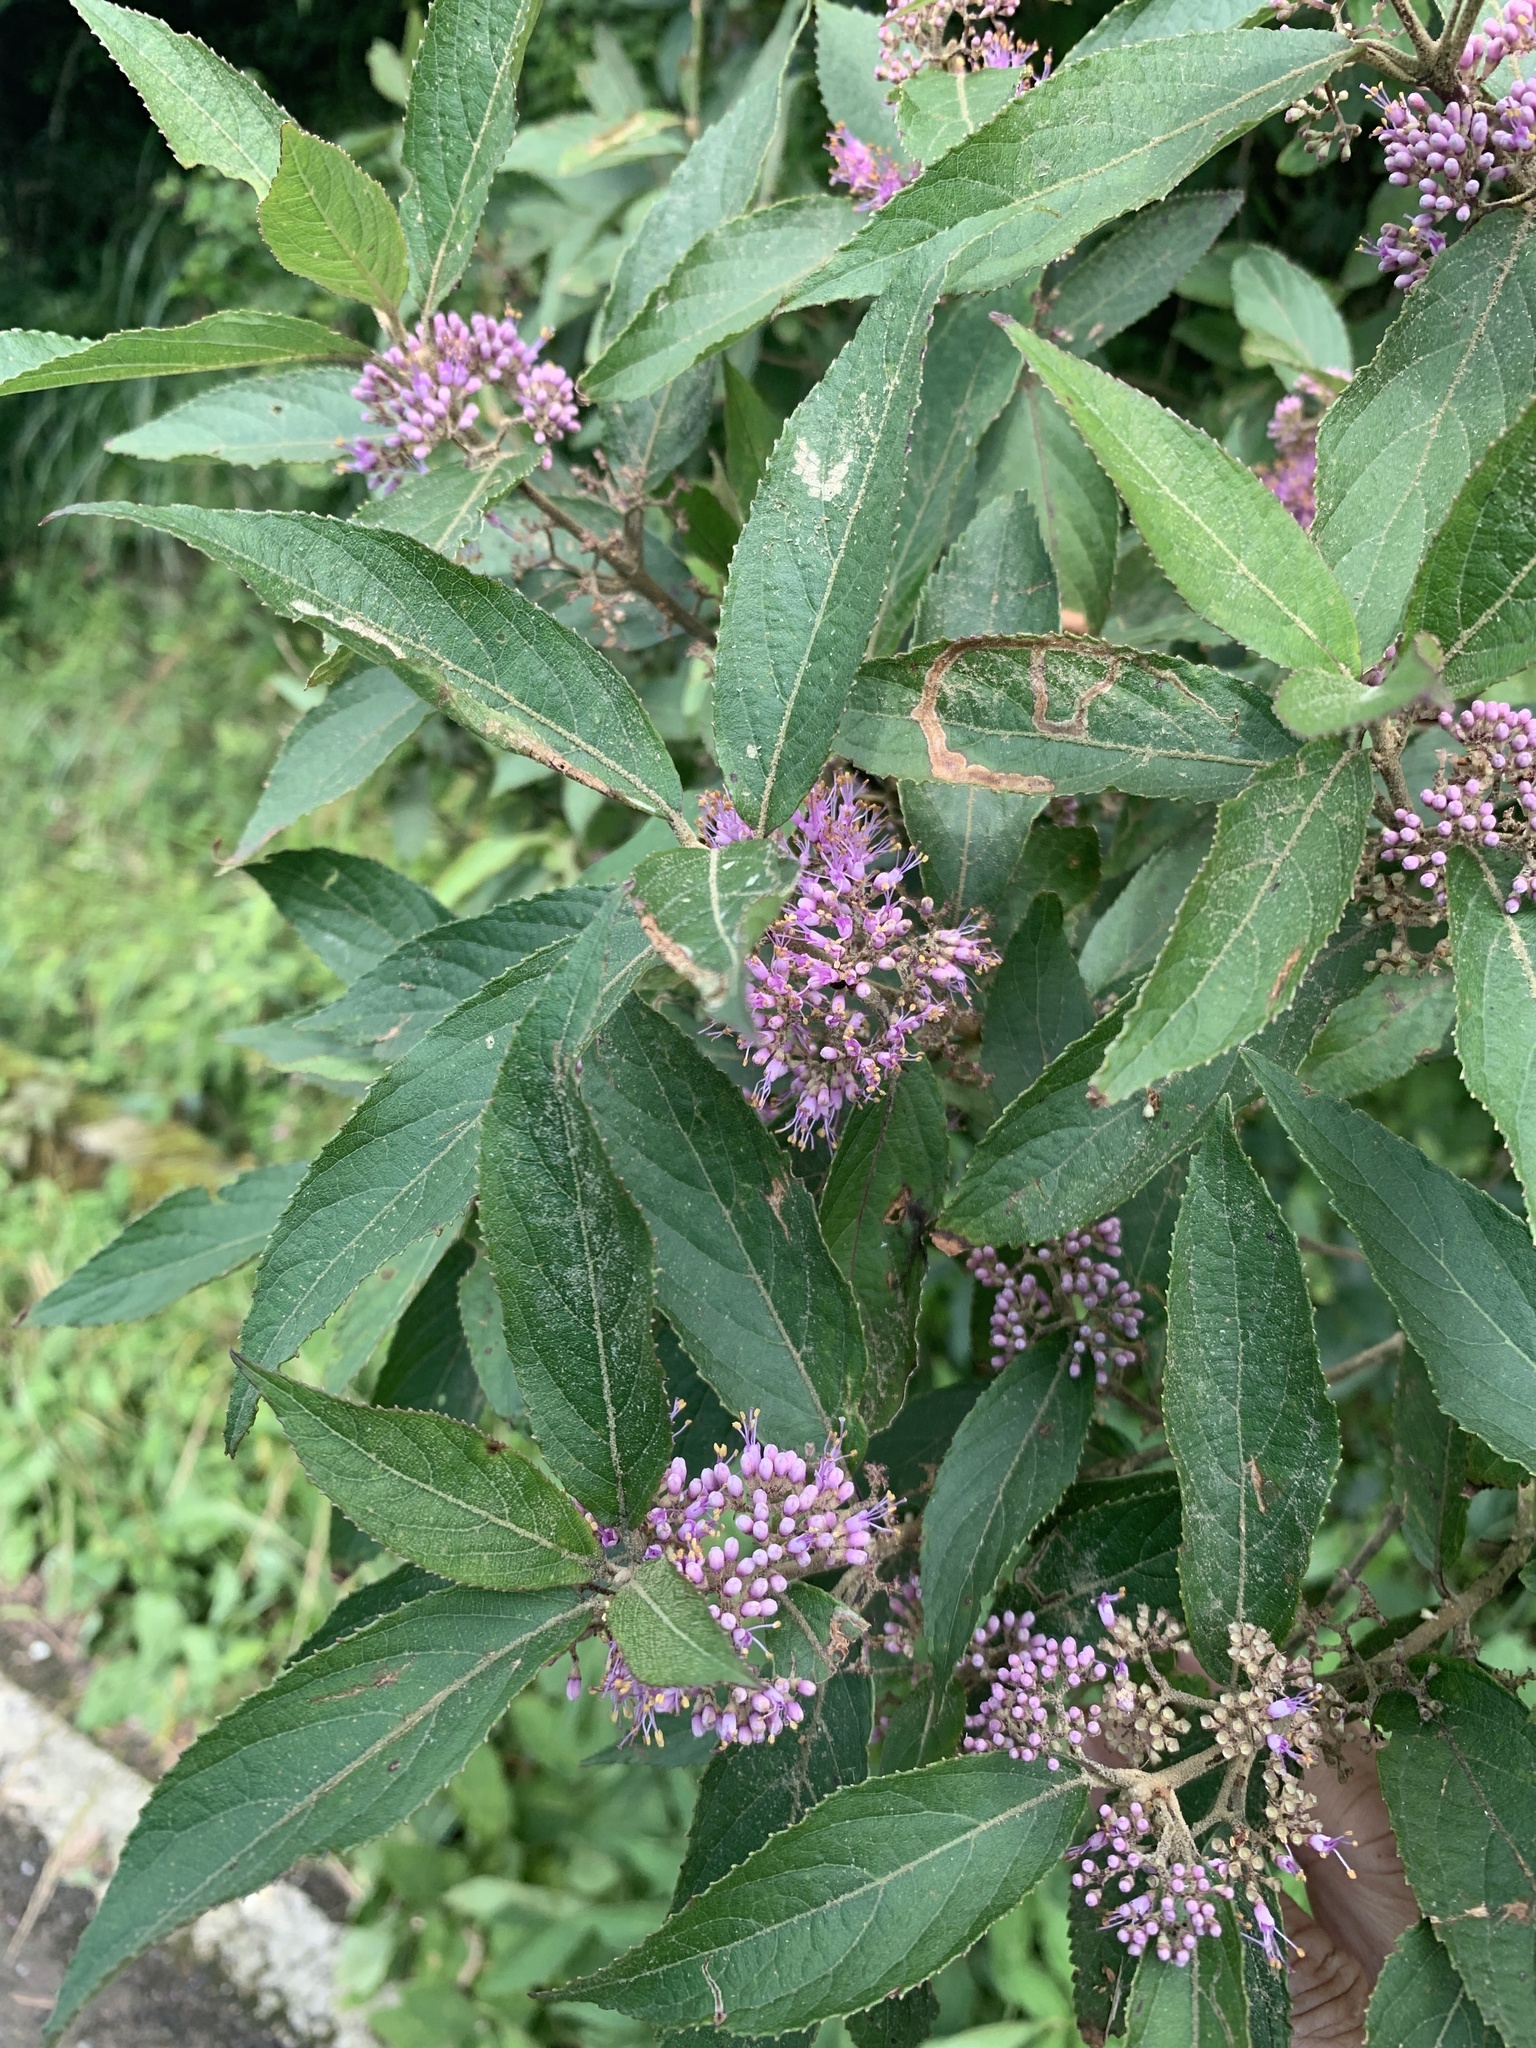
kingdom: Plantae
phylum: Tracheophyta
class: Magnoliopsida
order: Lamiales
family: Lamiaceae
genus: Callicarpa
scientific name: Callicarpa tikusikensis
